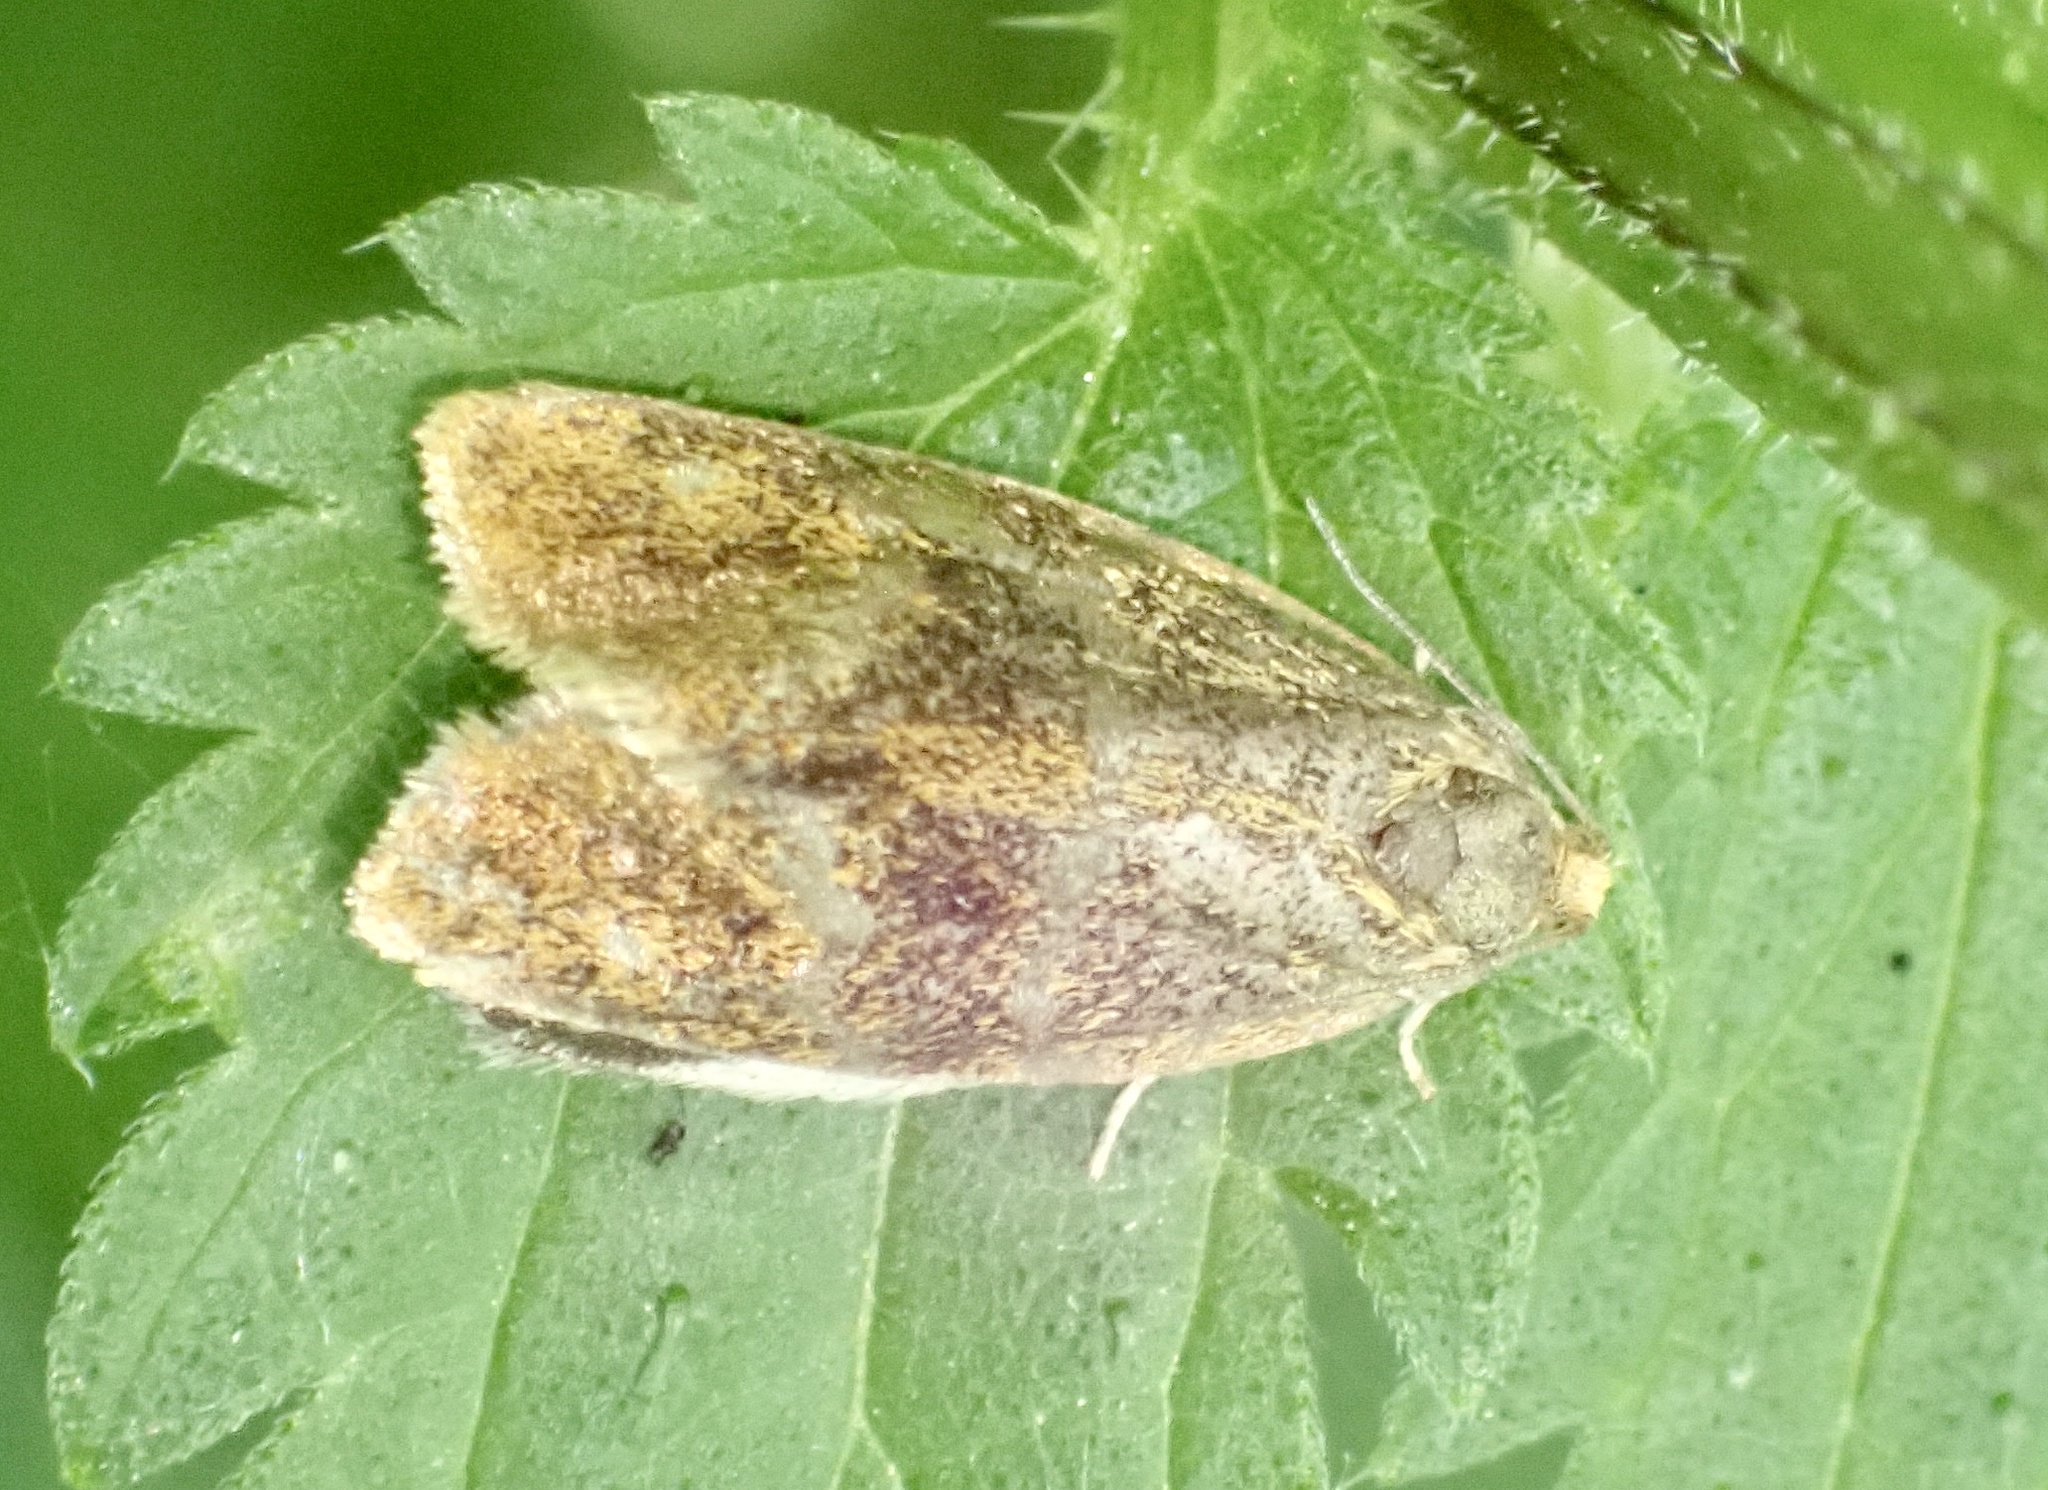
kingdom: Animalia
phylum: Arthropoda
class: Insecta
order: Lepidoptera
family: Tortricidae
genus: Ptycholoma
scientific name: Ptycholoma lecheana
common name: Leches twist moth
